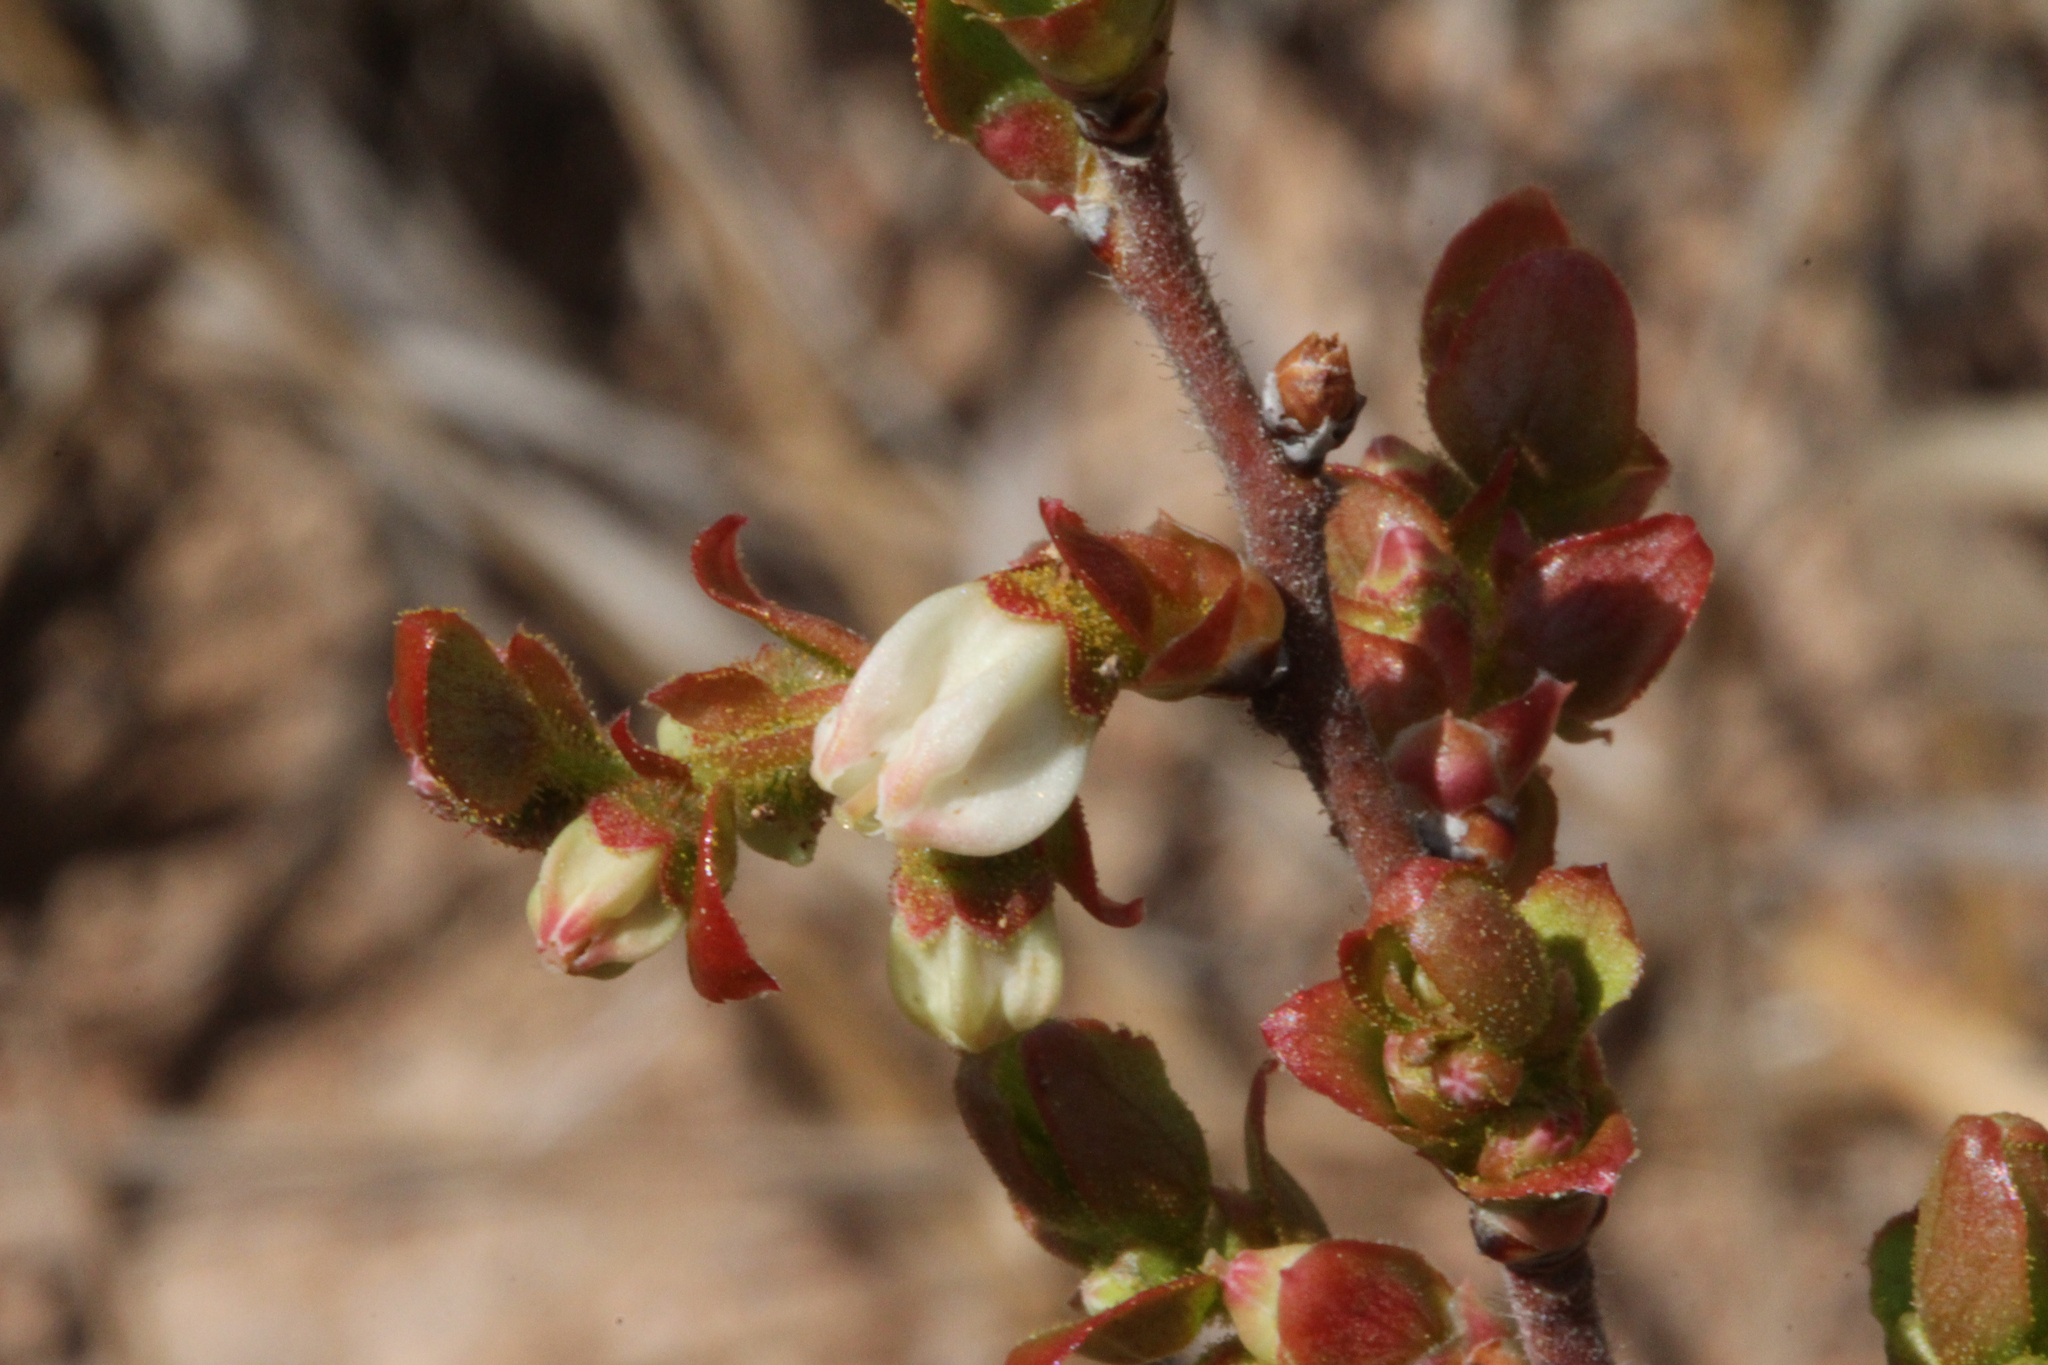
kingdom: Plantae
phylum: Tracheophyta
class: Magnoliopsida
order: Ericales
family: Ericaceae
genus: Gaylussacia
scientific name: Gaylussacia dumosa
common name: Dwarf huckleberry
